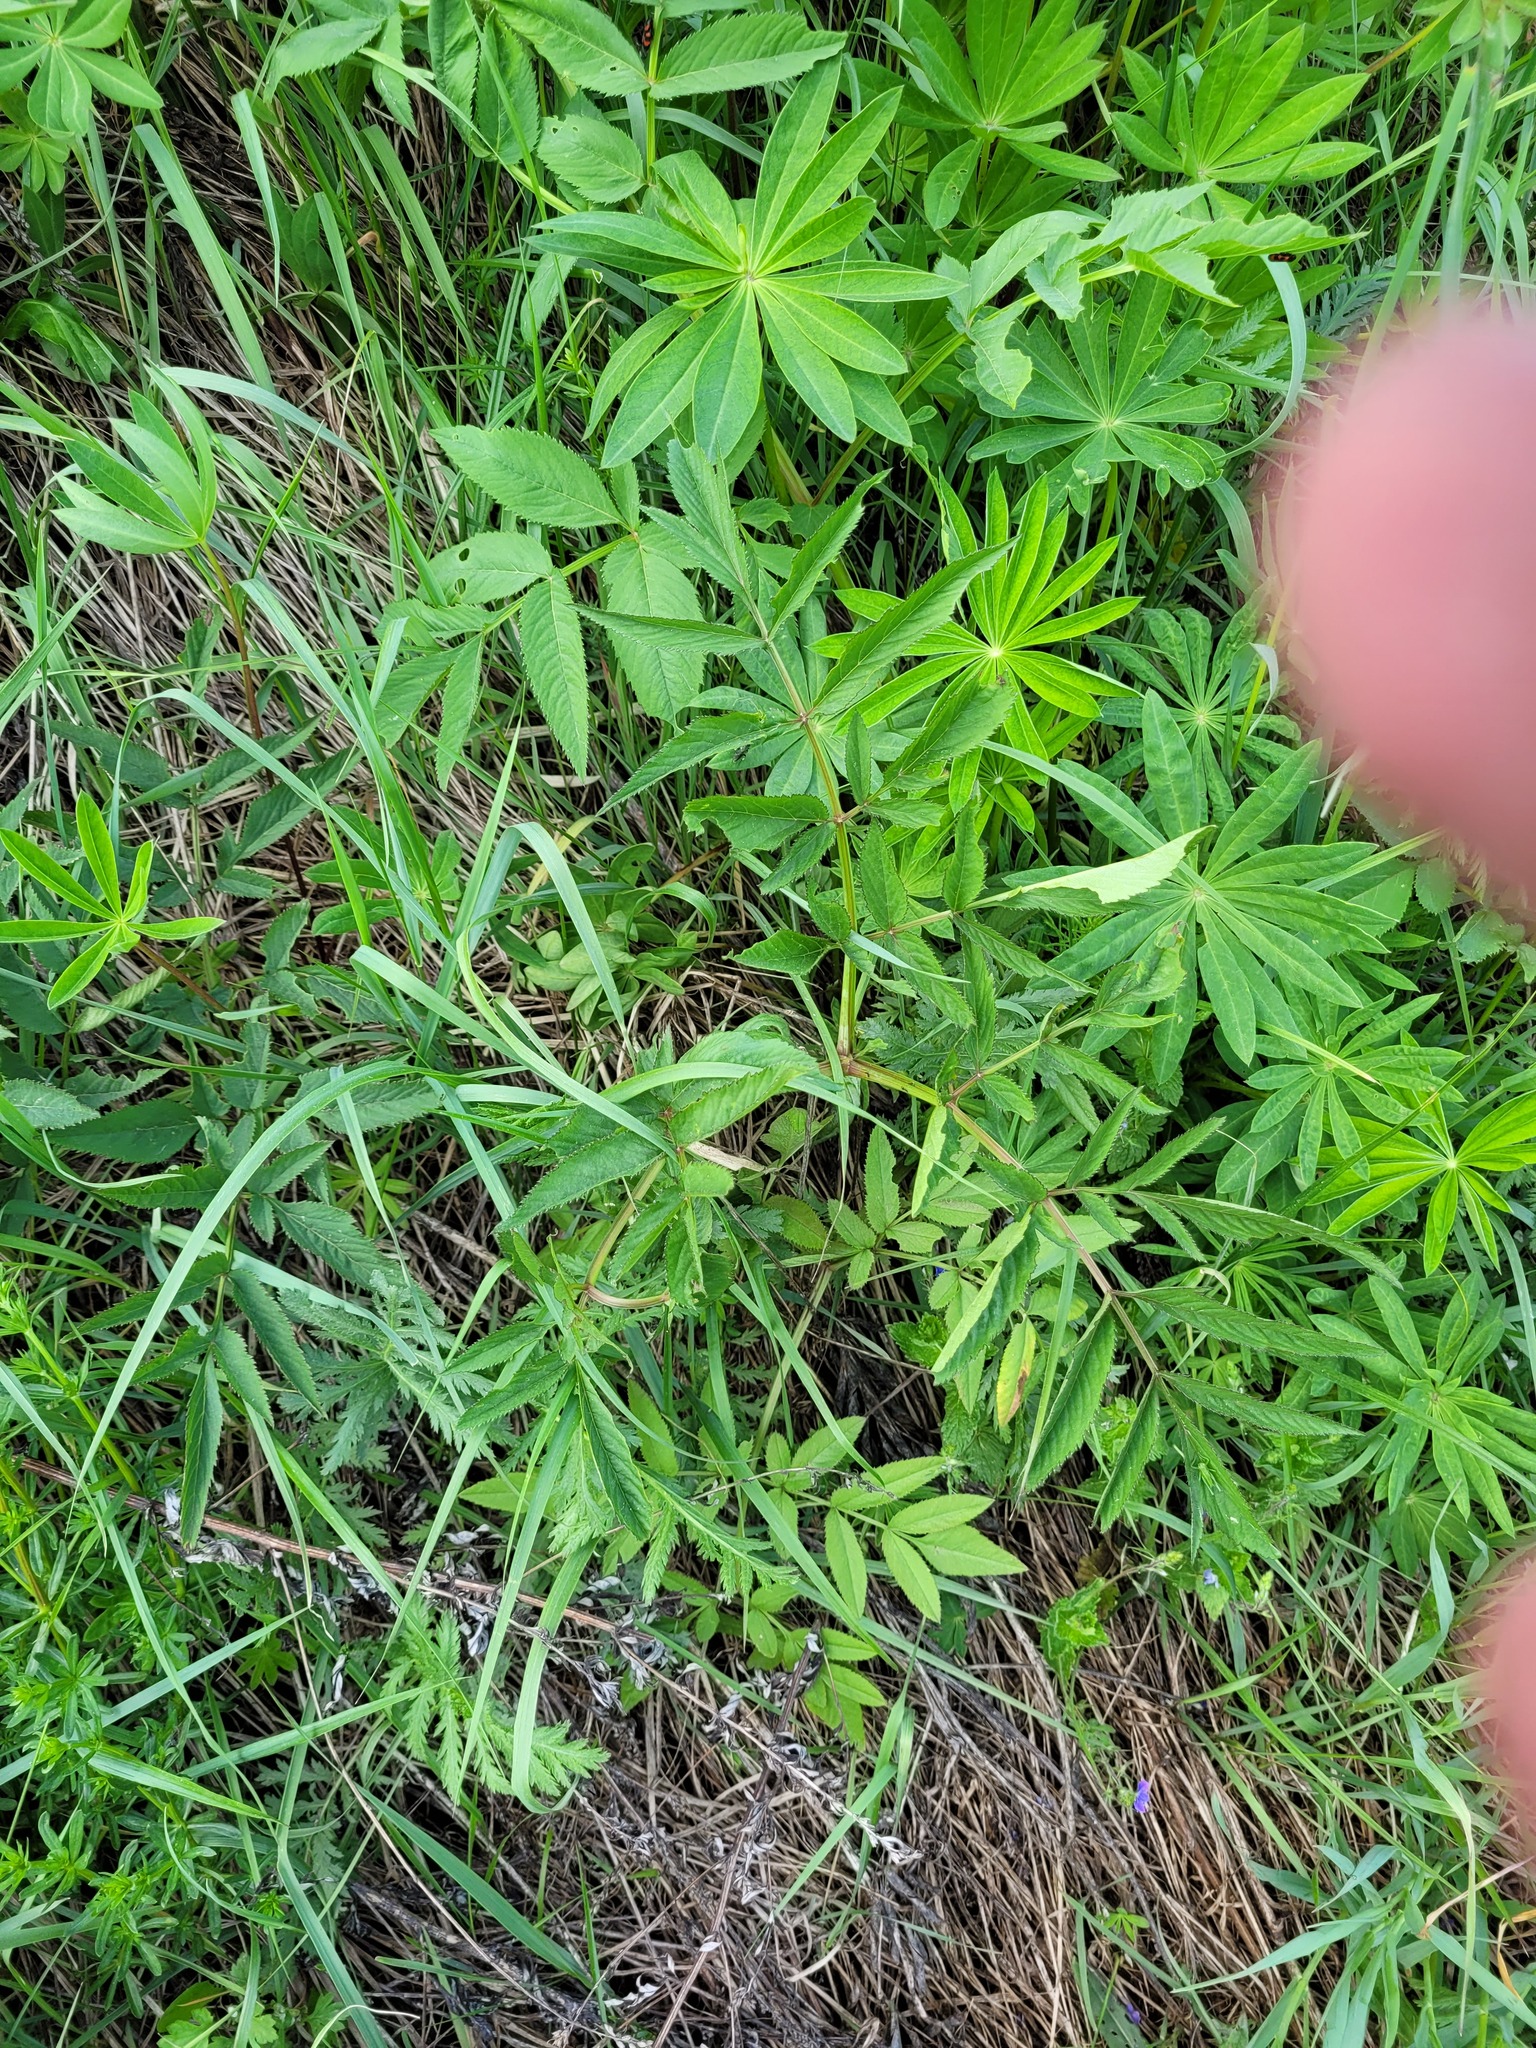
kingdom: Plantae
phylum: Tracheophyta
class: Magnoliopsida
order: Apiales
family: Apiaceae
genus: Angelica
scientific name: Angelica sylvestris
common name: Wild angelica
